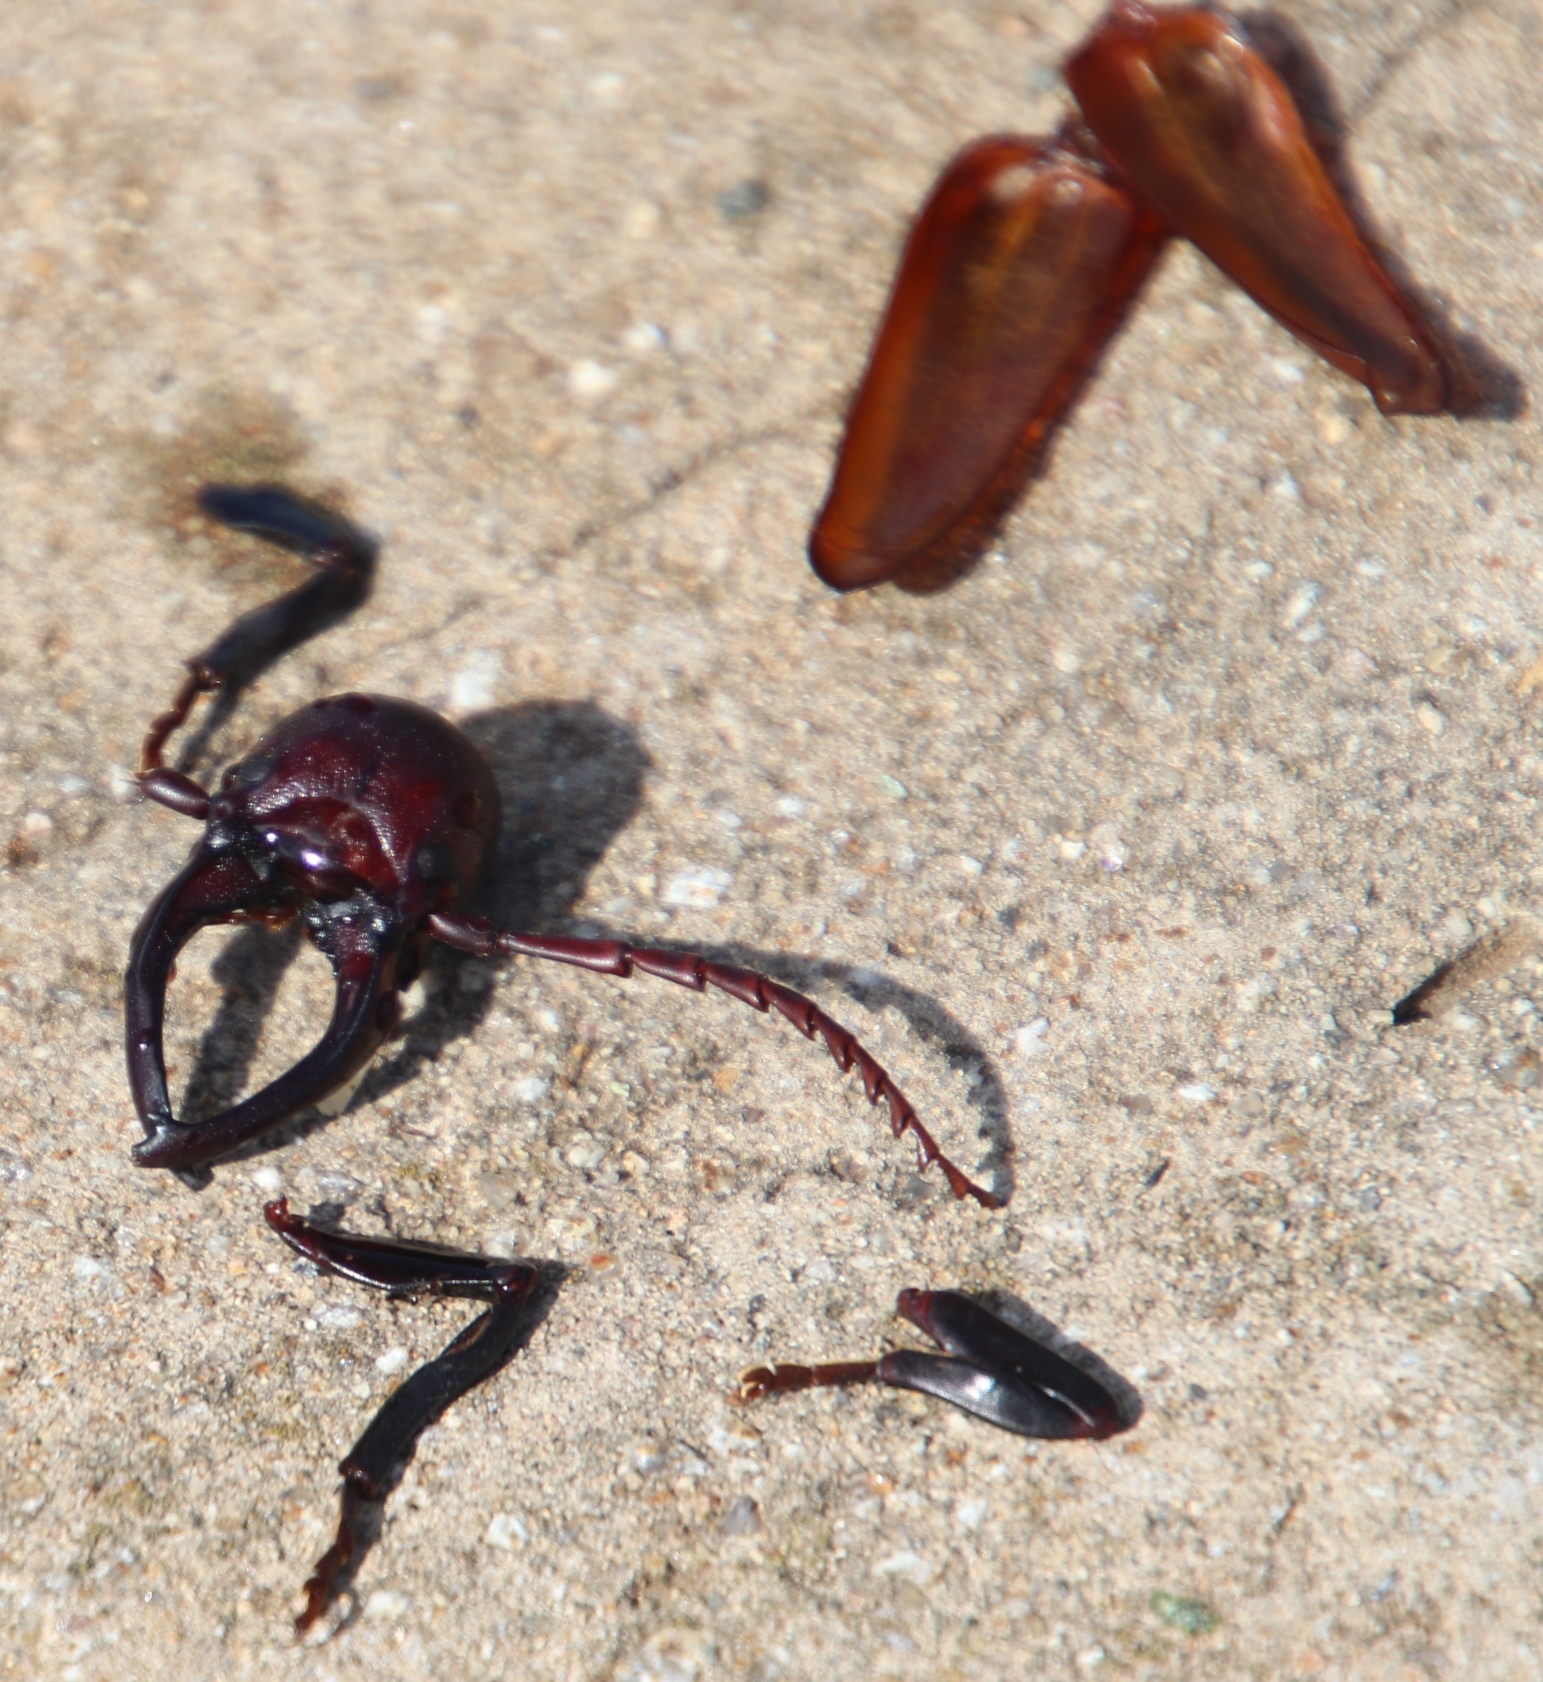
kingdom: Animalia
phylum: Arthropoda
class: Insecta
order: Coleoptera
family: Cerambycidae
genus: Cacosceles
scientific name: Cacosceles newmannii
